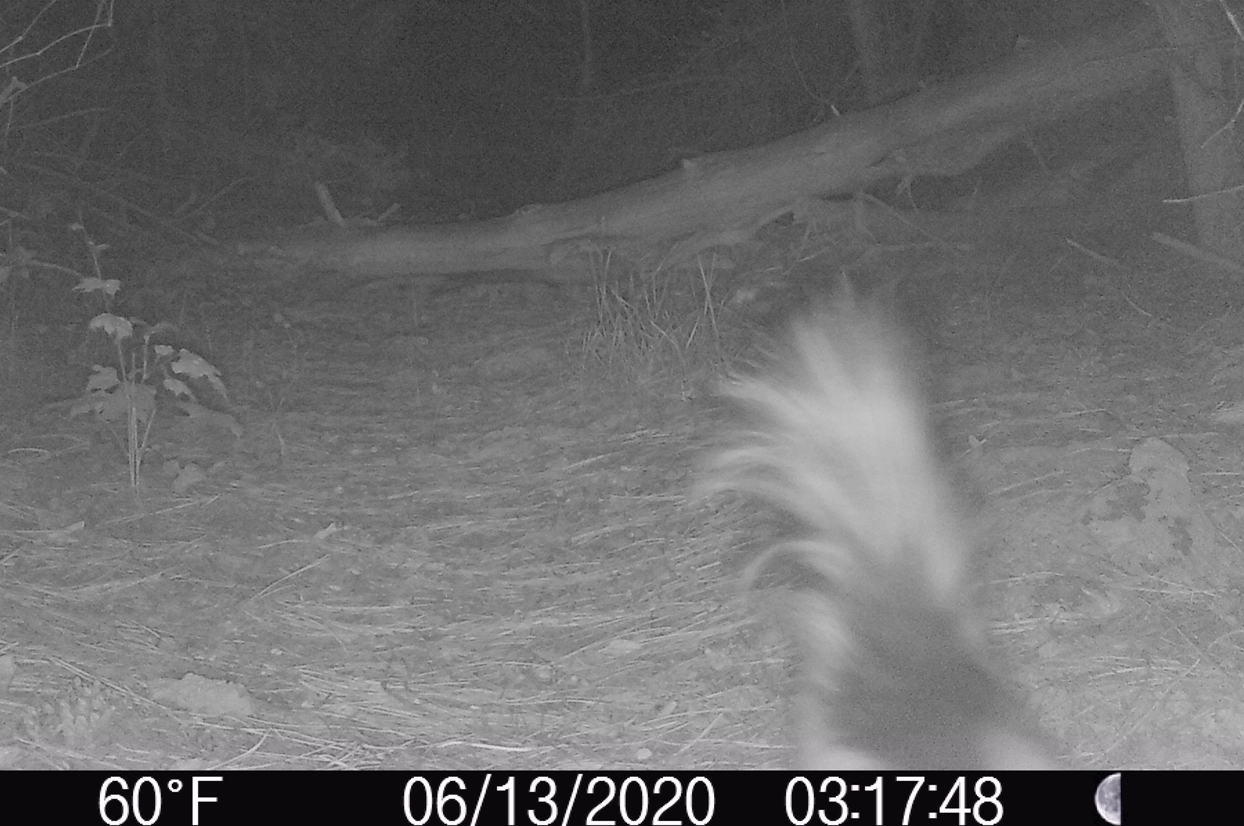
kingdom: Animalia
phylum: Chordata
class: Mammalia
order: Carnivora
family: Mephitidae
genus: Mephitis
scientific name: Mephitis mephitis
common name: Striped skunk
